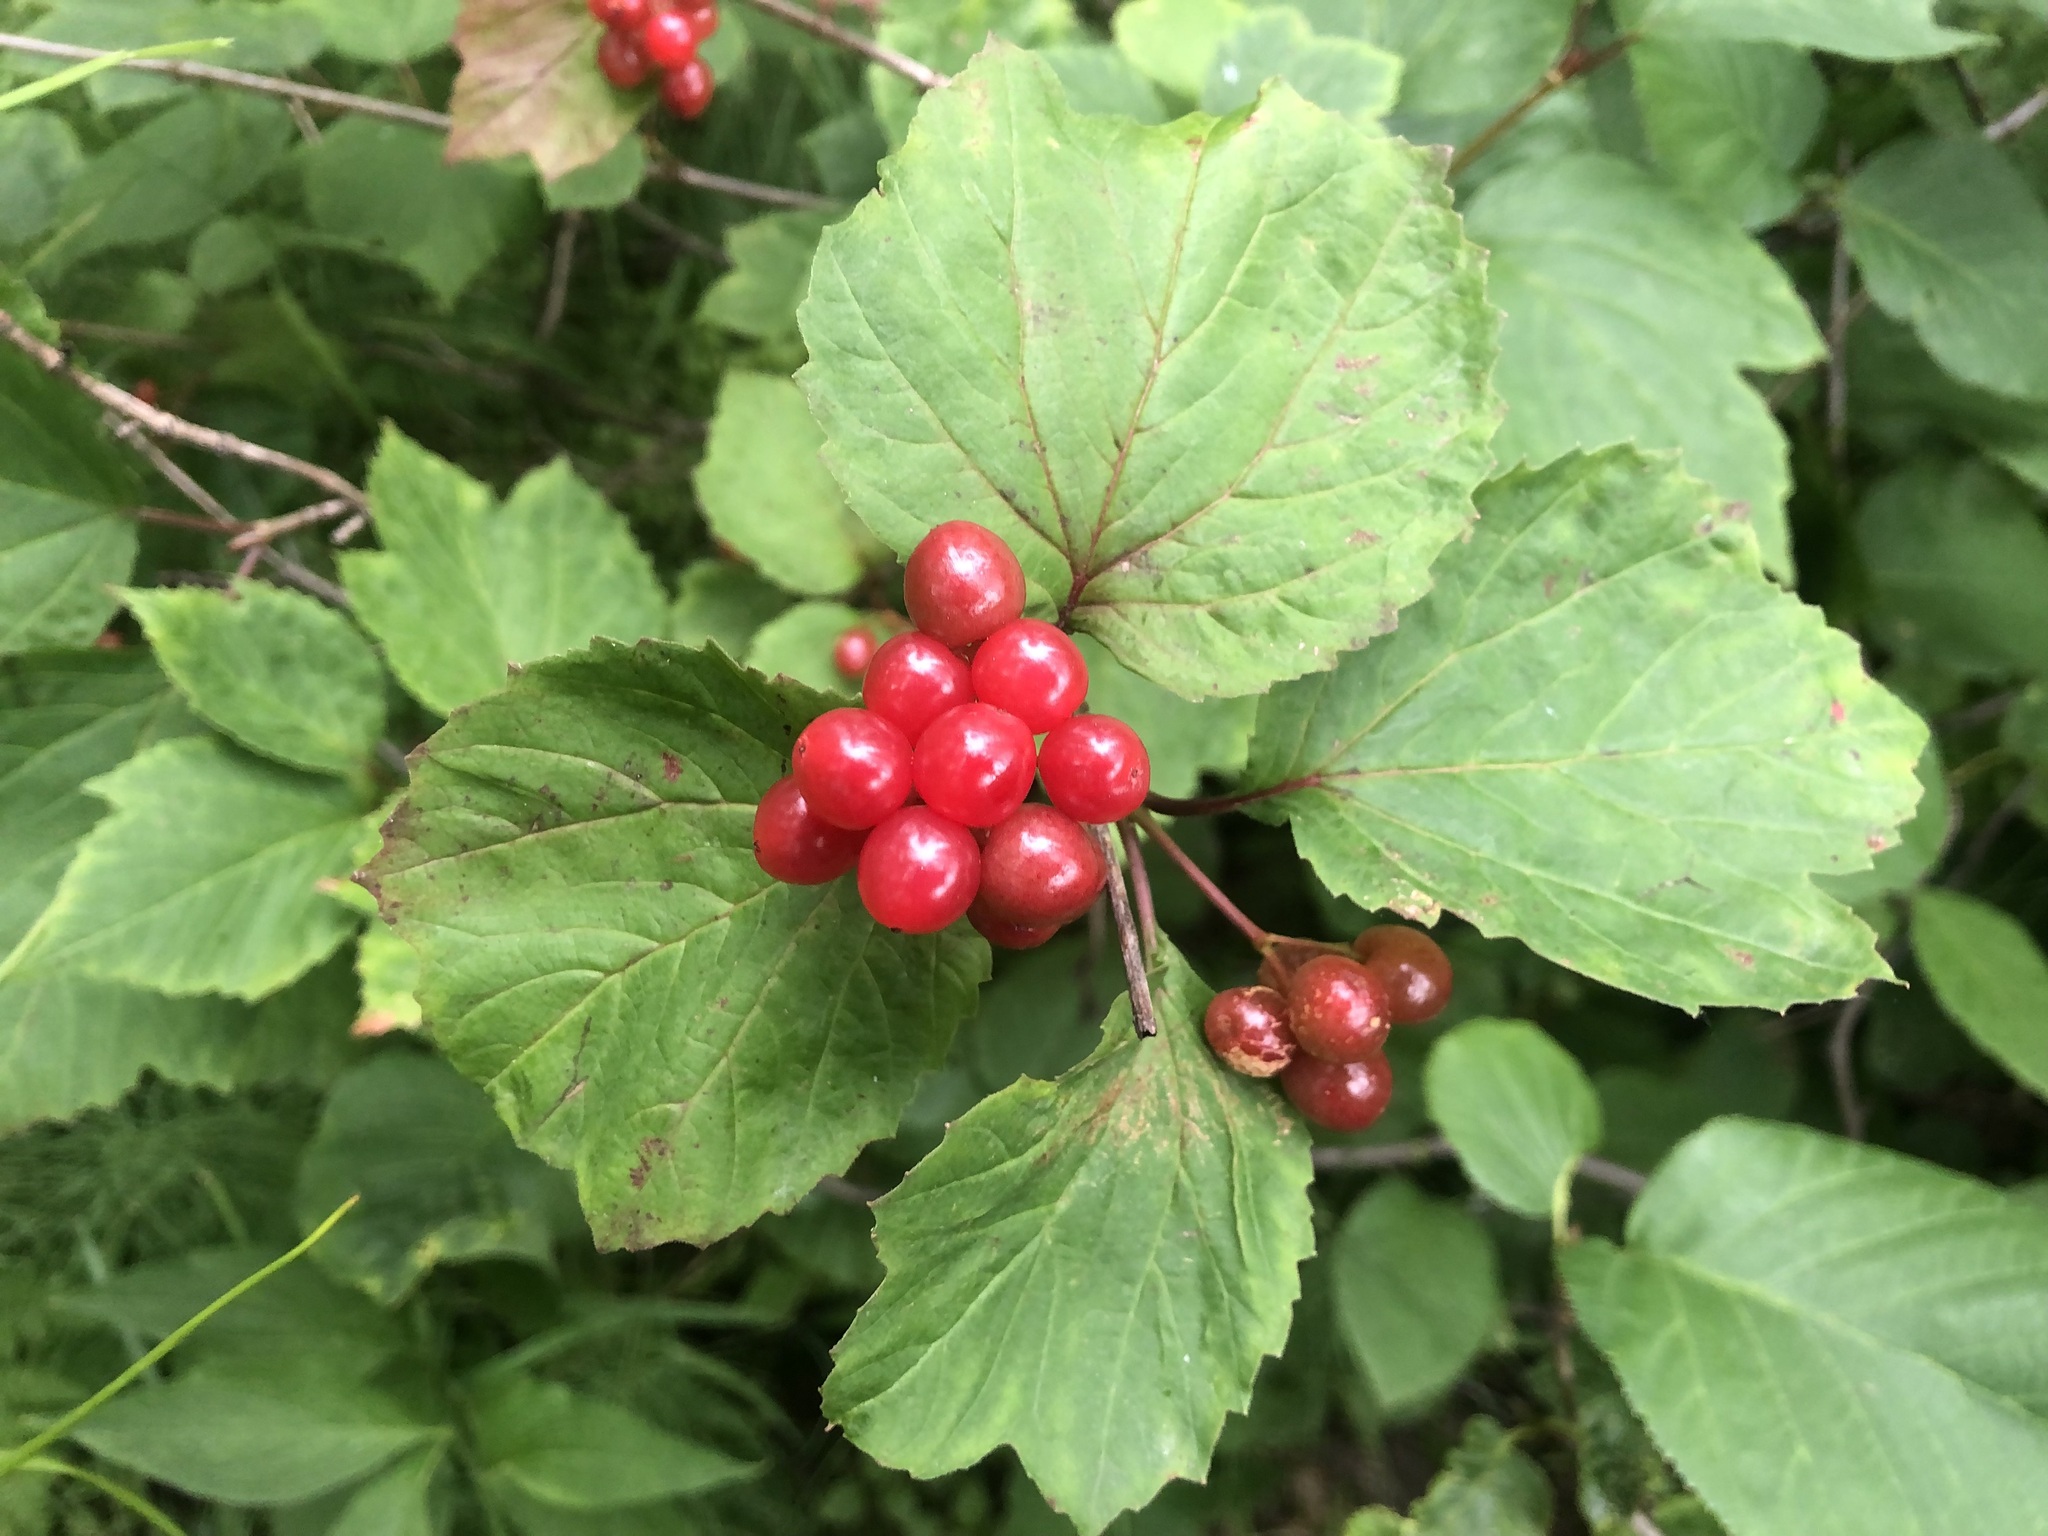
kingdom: Plantae
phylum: Tracheophyta
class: Magnoliopsida
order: Dipsacales
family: Viburnaceae
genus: Viburnum
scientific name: Viburnum edule
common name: Mooseberry
